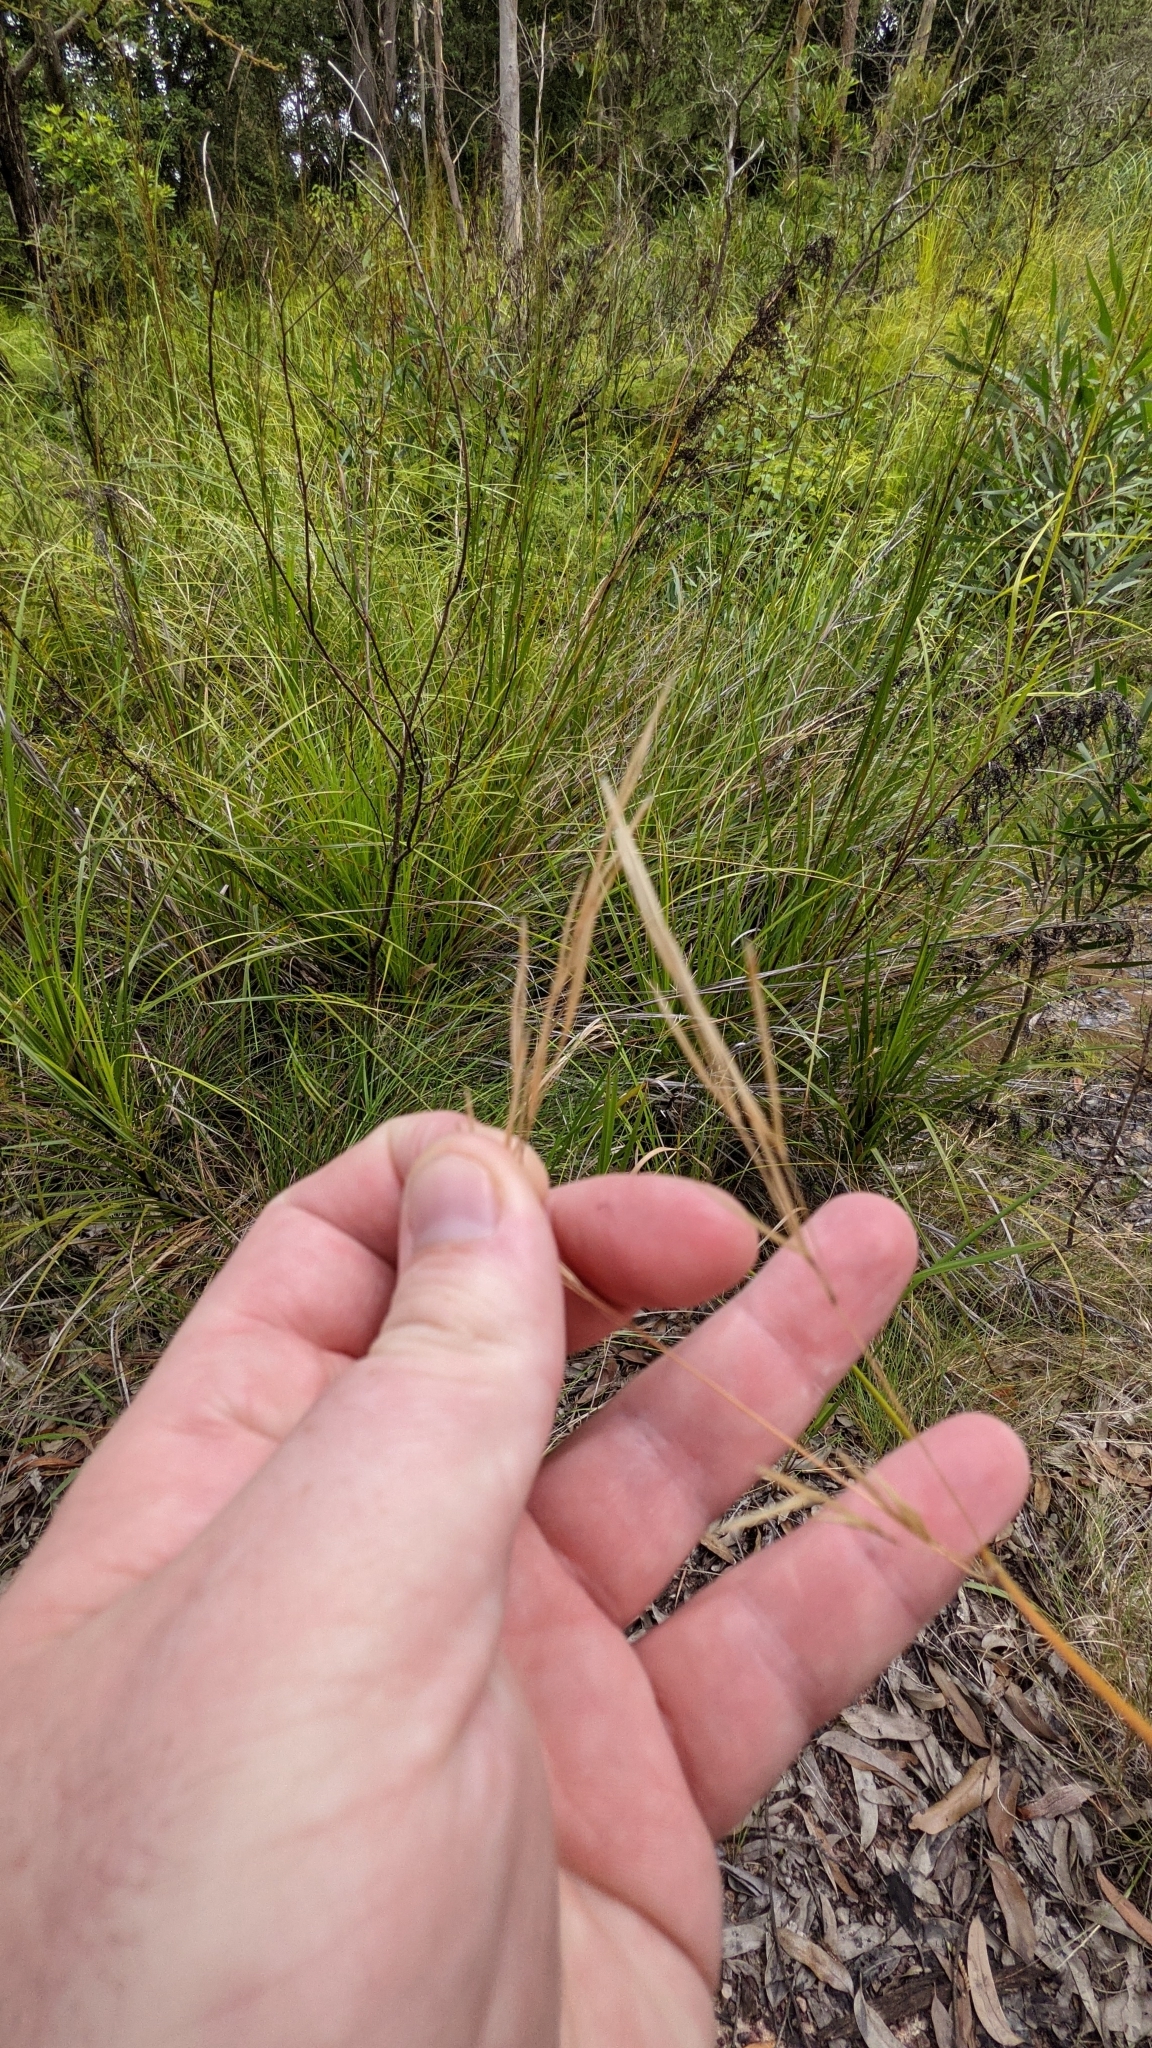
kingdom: Plantae
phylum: Tracheophyta
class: Liliopsida
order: Poales
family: Poaceae
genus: Austrostipa
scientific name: Austrostipa
